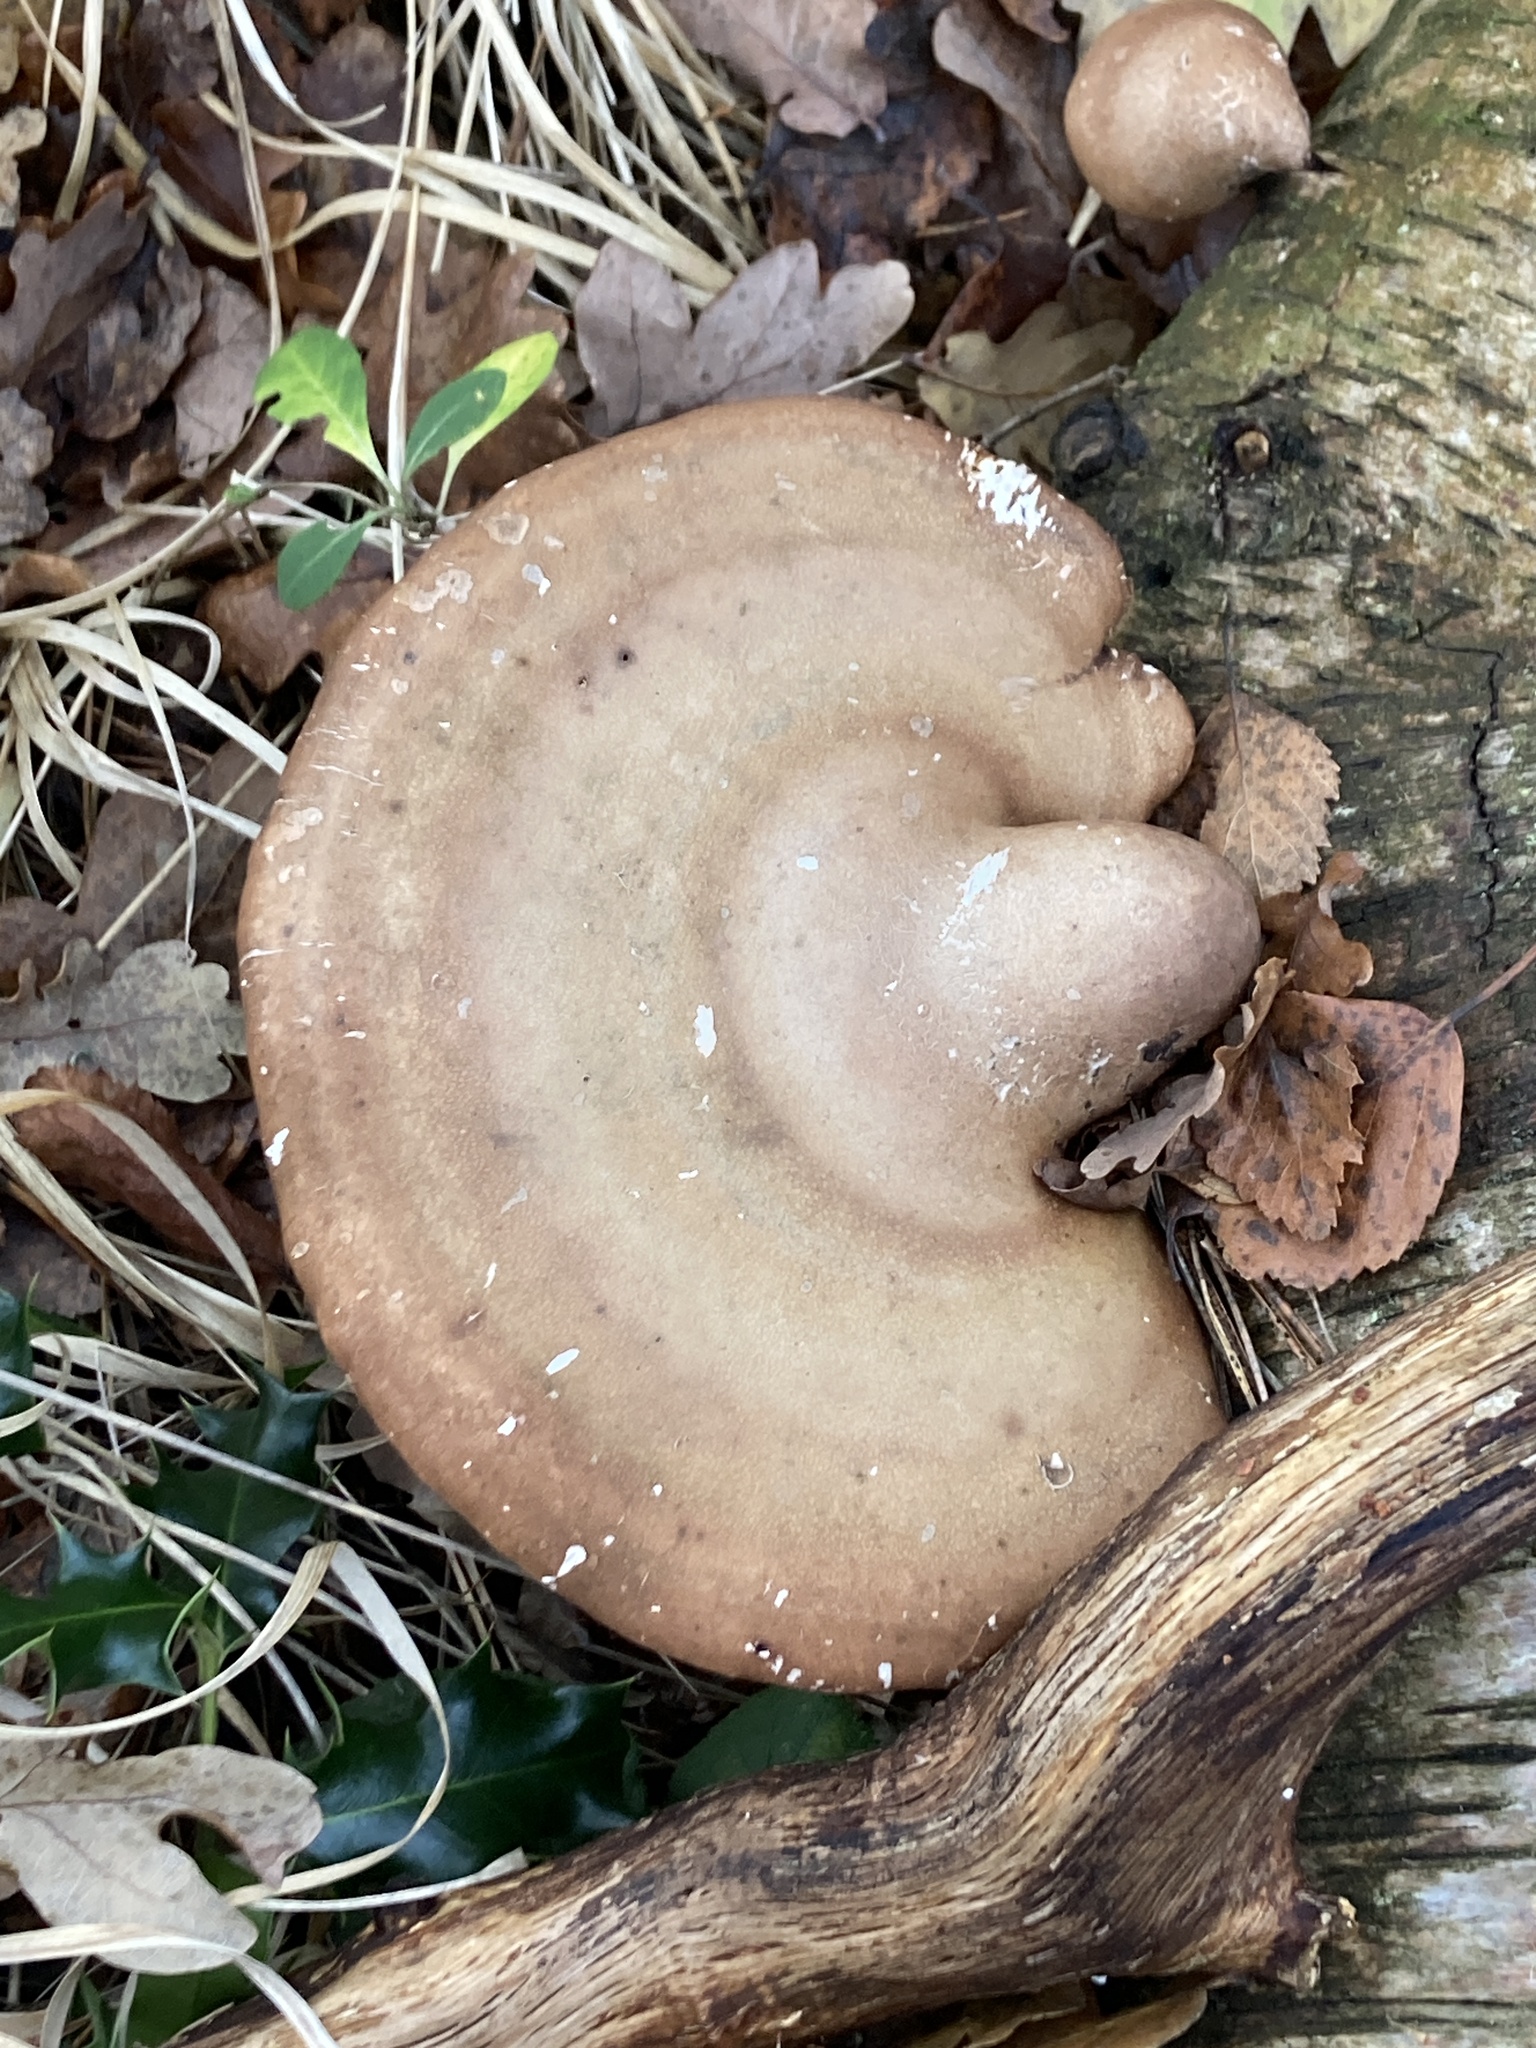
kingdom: Fungi
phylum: Basidiomycota
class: Agaricomycetes
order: Polyporales
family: Fomitopsidaceae
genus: Fomitopsis
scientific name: Fomitopsis betulina
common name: Birch polypore
